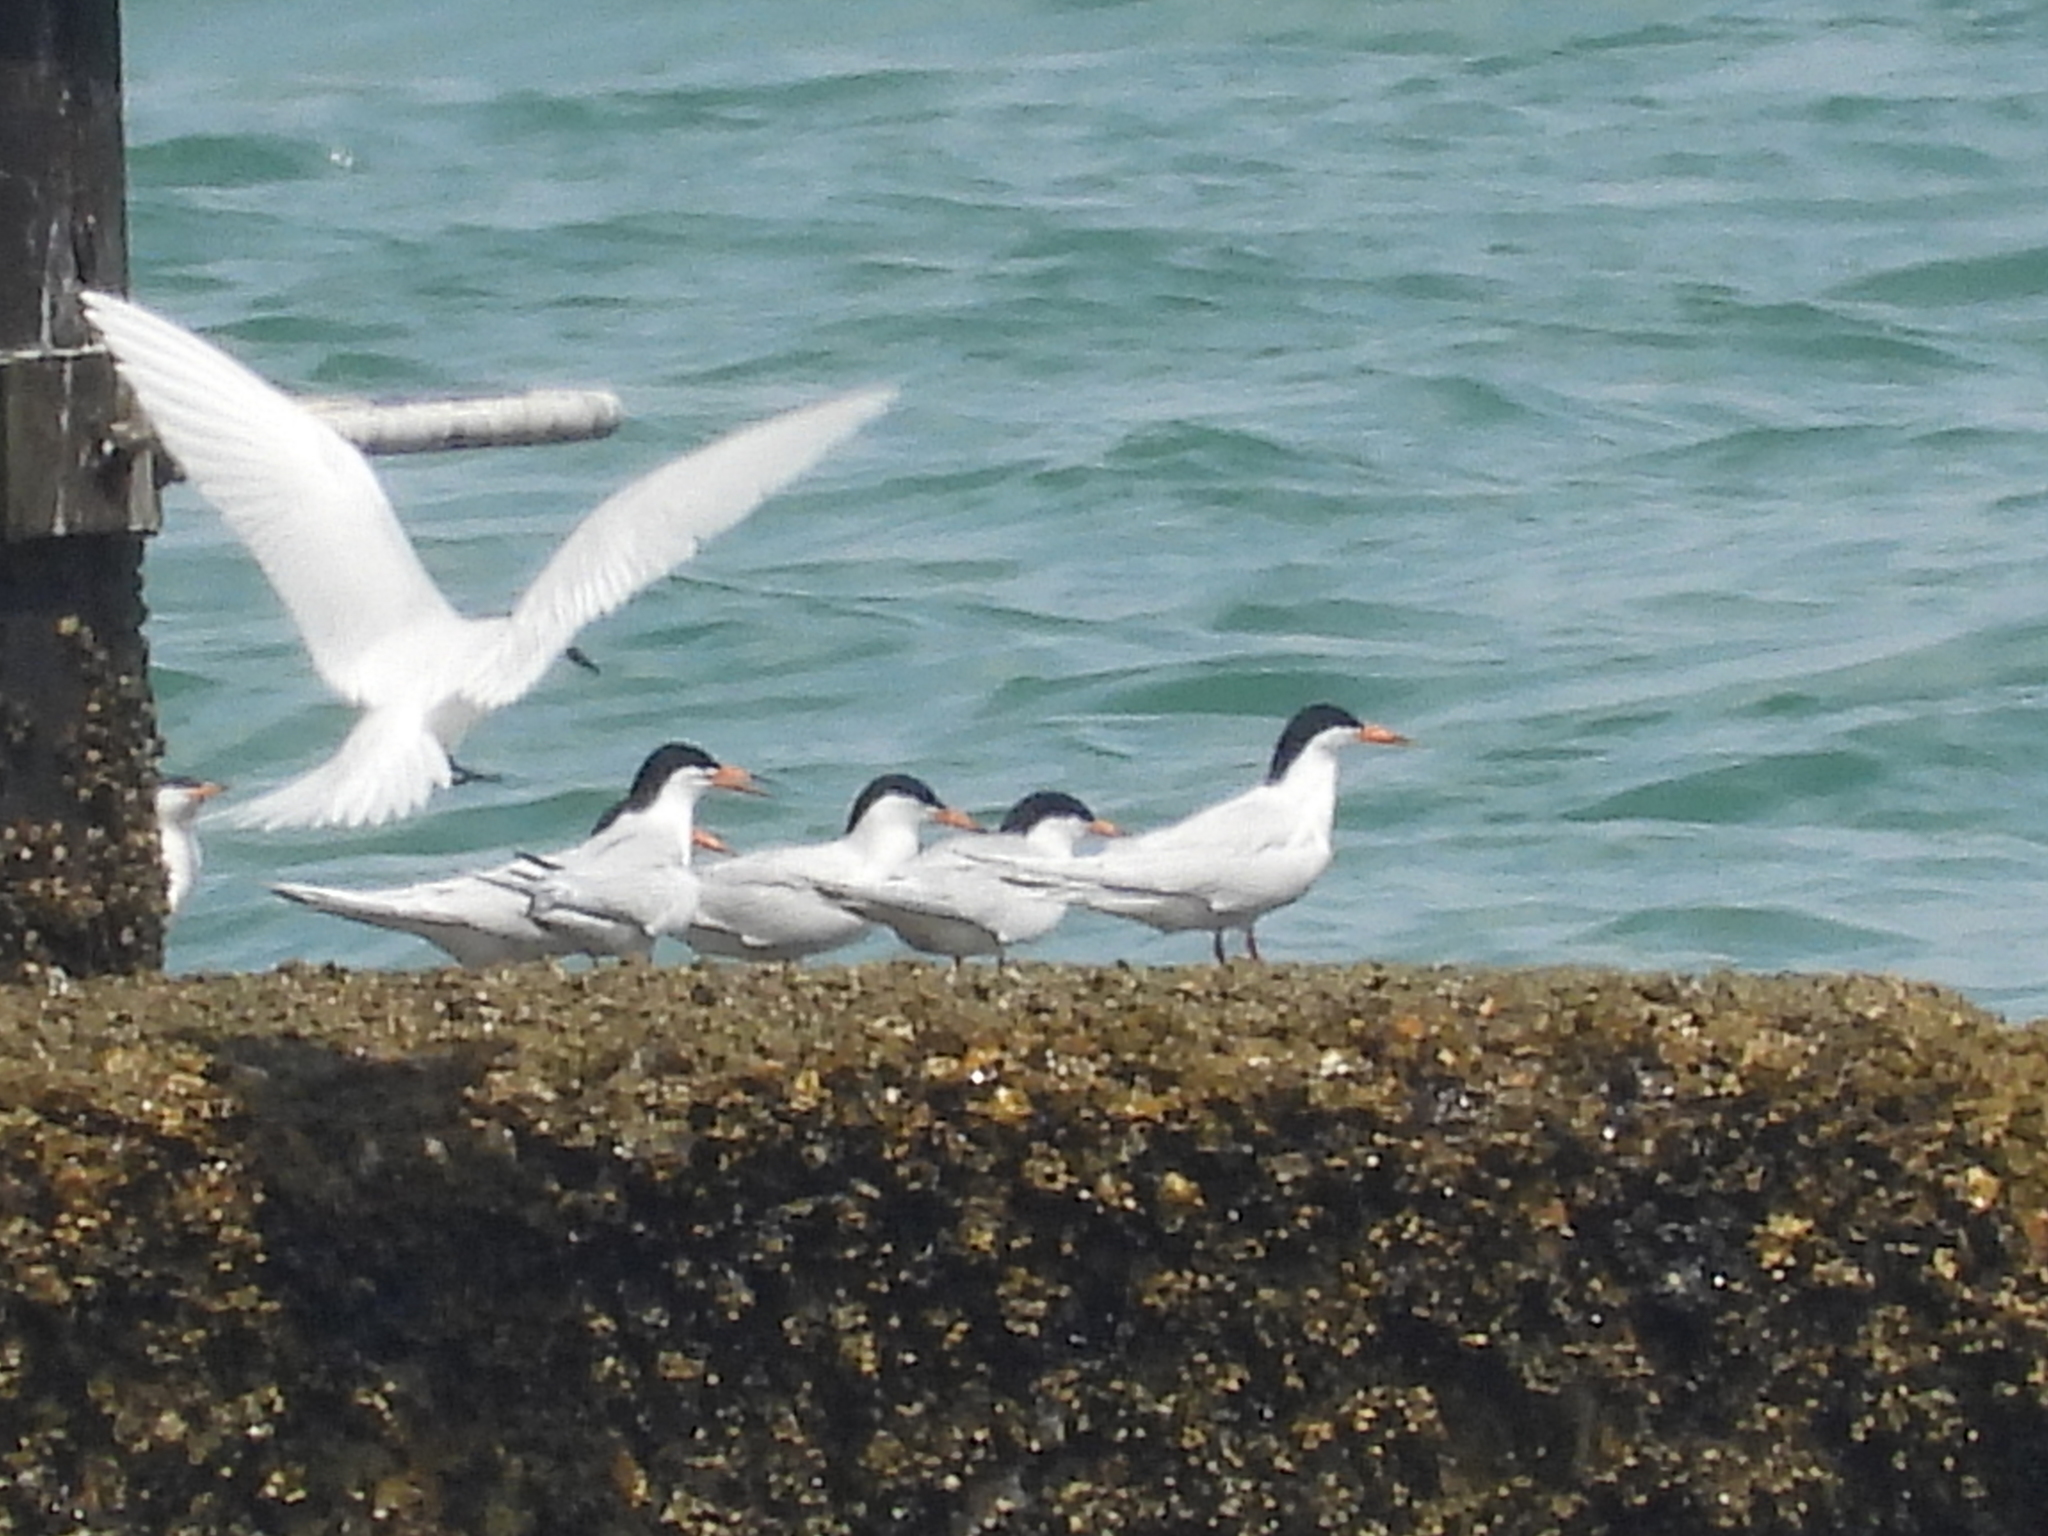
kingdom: Animalia
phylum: Chordata
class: Aves
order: Charadriiformes
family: Laridae
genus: Sterna
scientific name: Sterna dougallii
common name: Roseate tern
